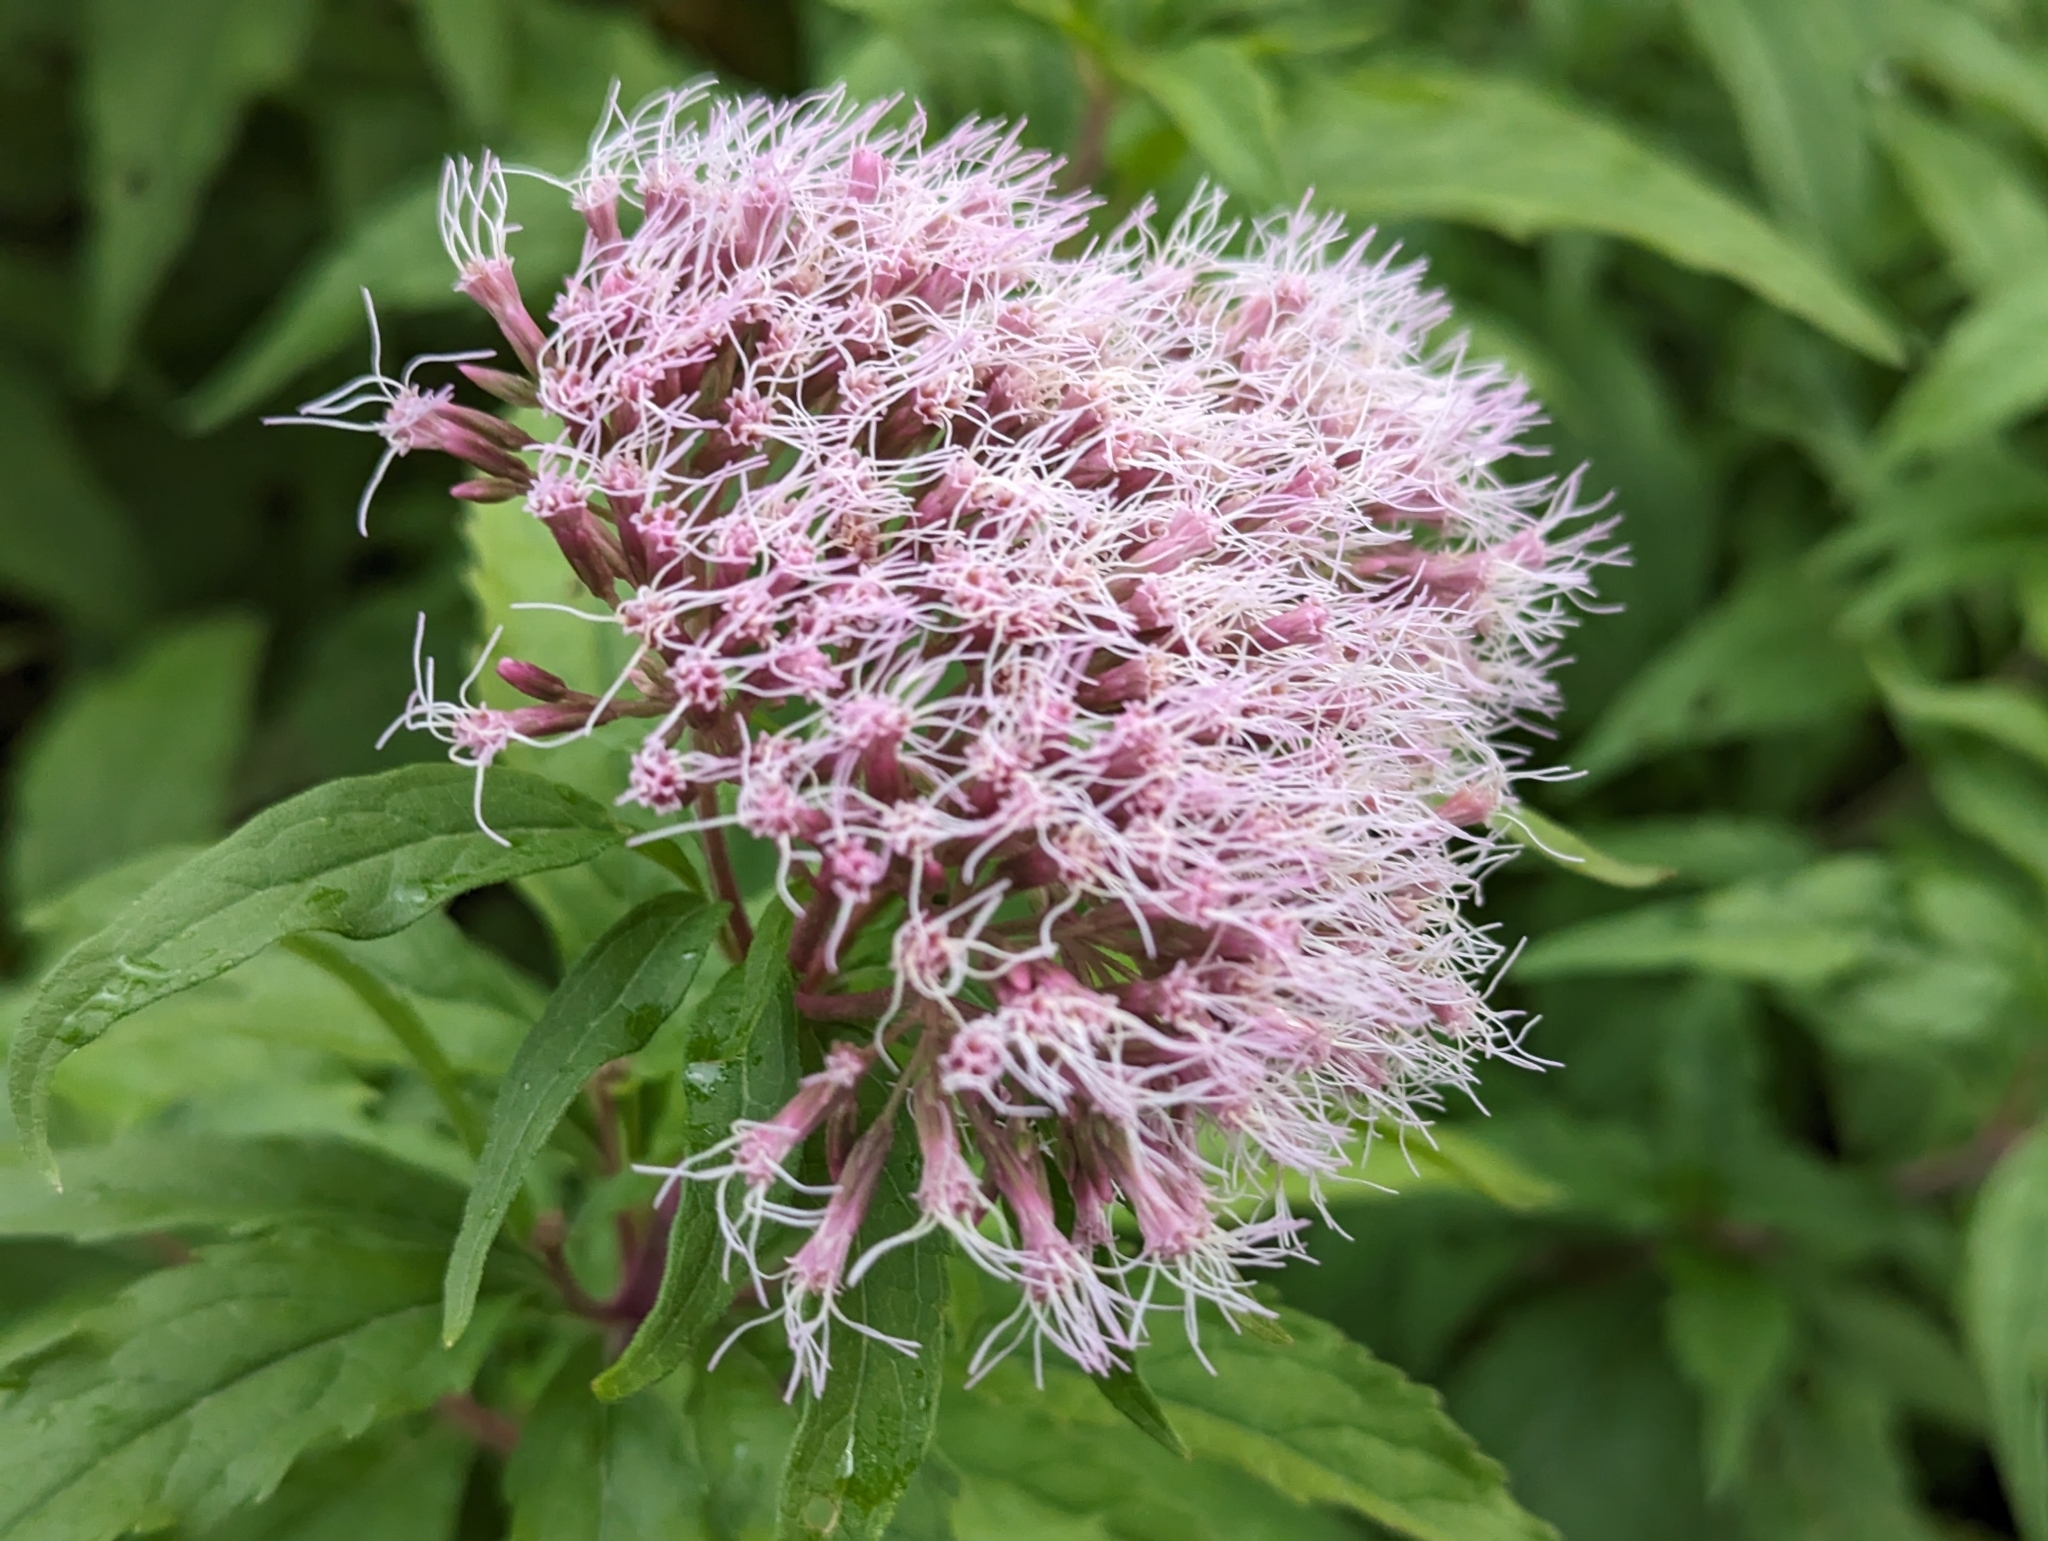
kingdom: Plantae
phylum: Tracheophyta
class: Magnoliopsida
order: Asterales
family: Asteraceae
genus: Eupatorium
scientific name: Eupatorium cannabinum
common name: Hemp-agrimony
